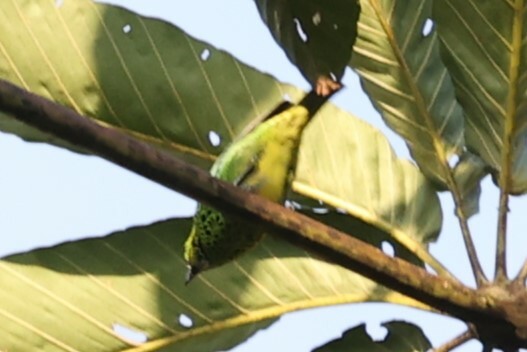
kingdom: Animalia
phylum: Chordata
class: Aves
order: Passeriformes
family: Thraupidae
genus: Ixothraupis
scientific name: Ixothraupis xanthogastra
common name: Yellow-bellied tanager
